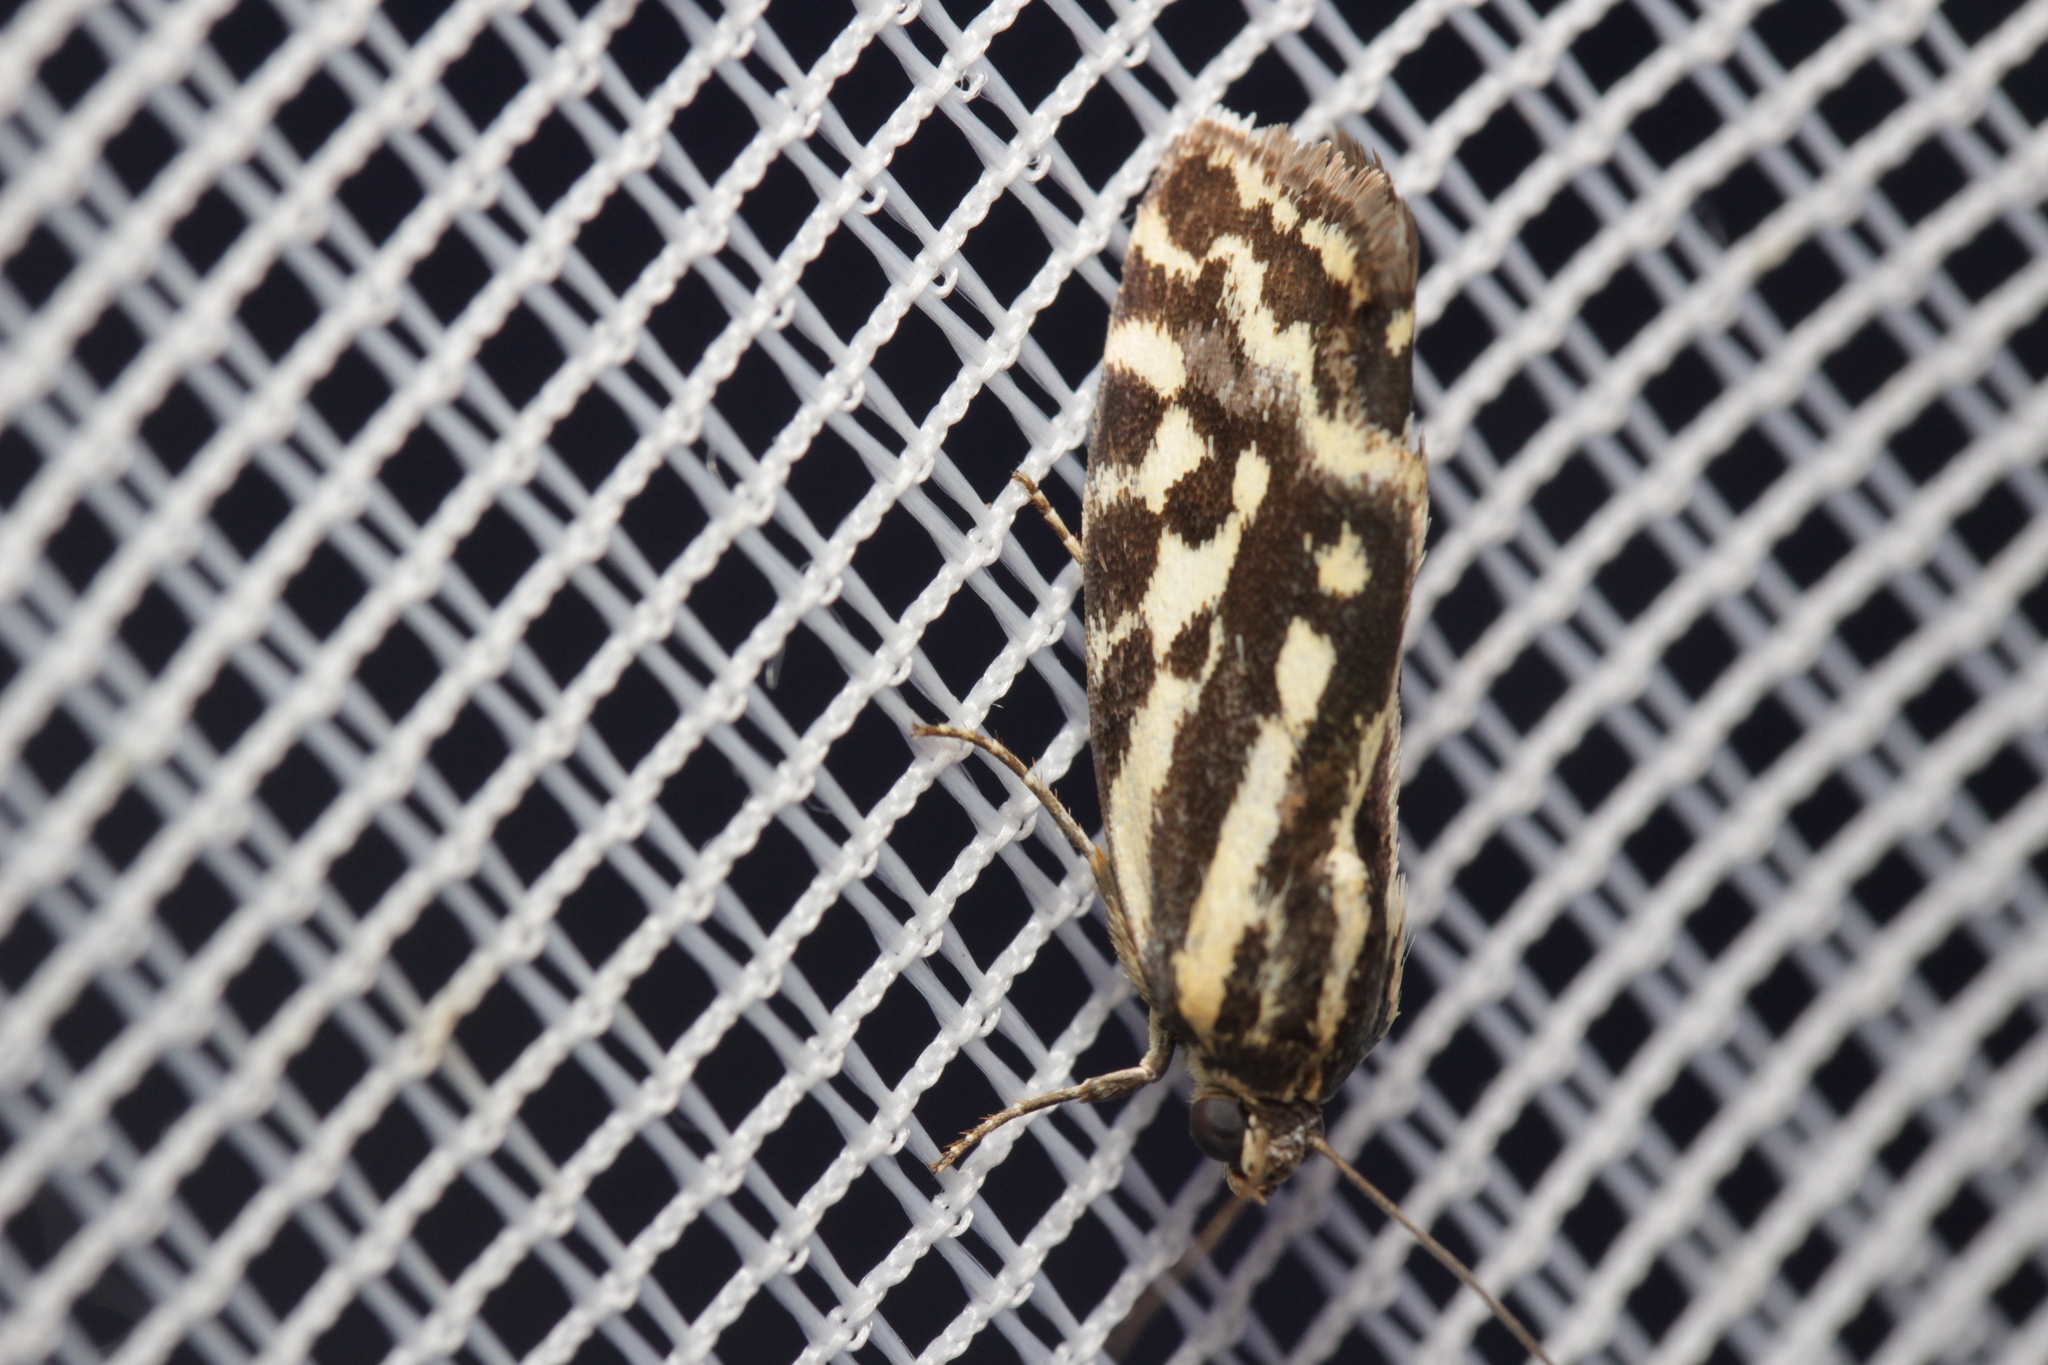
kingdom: Animalia
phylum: Arthropoda
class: Insecta
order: Lepidoptera
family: Noctuidae
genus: Acontia
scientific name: Acontia trabealis
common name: Spotted sulphur
